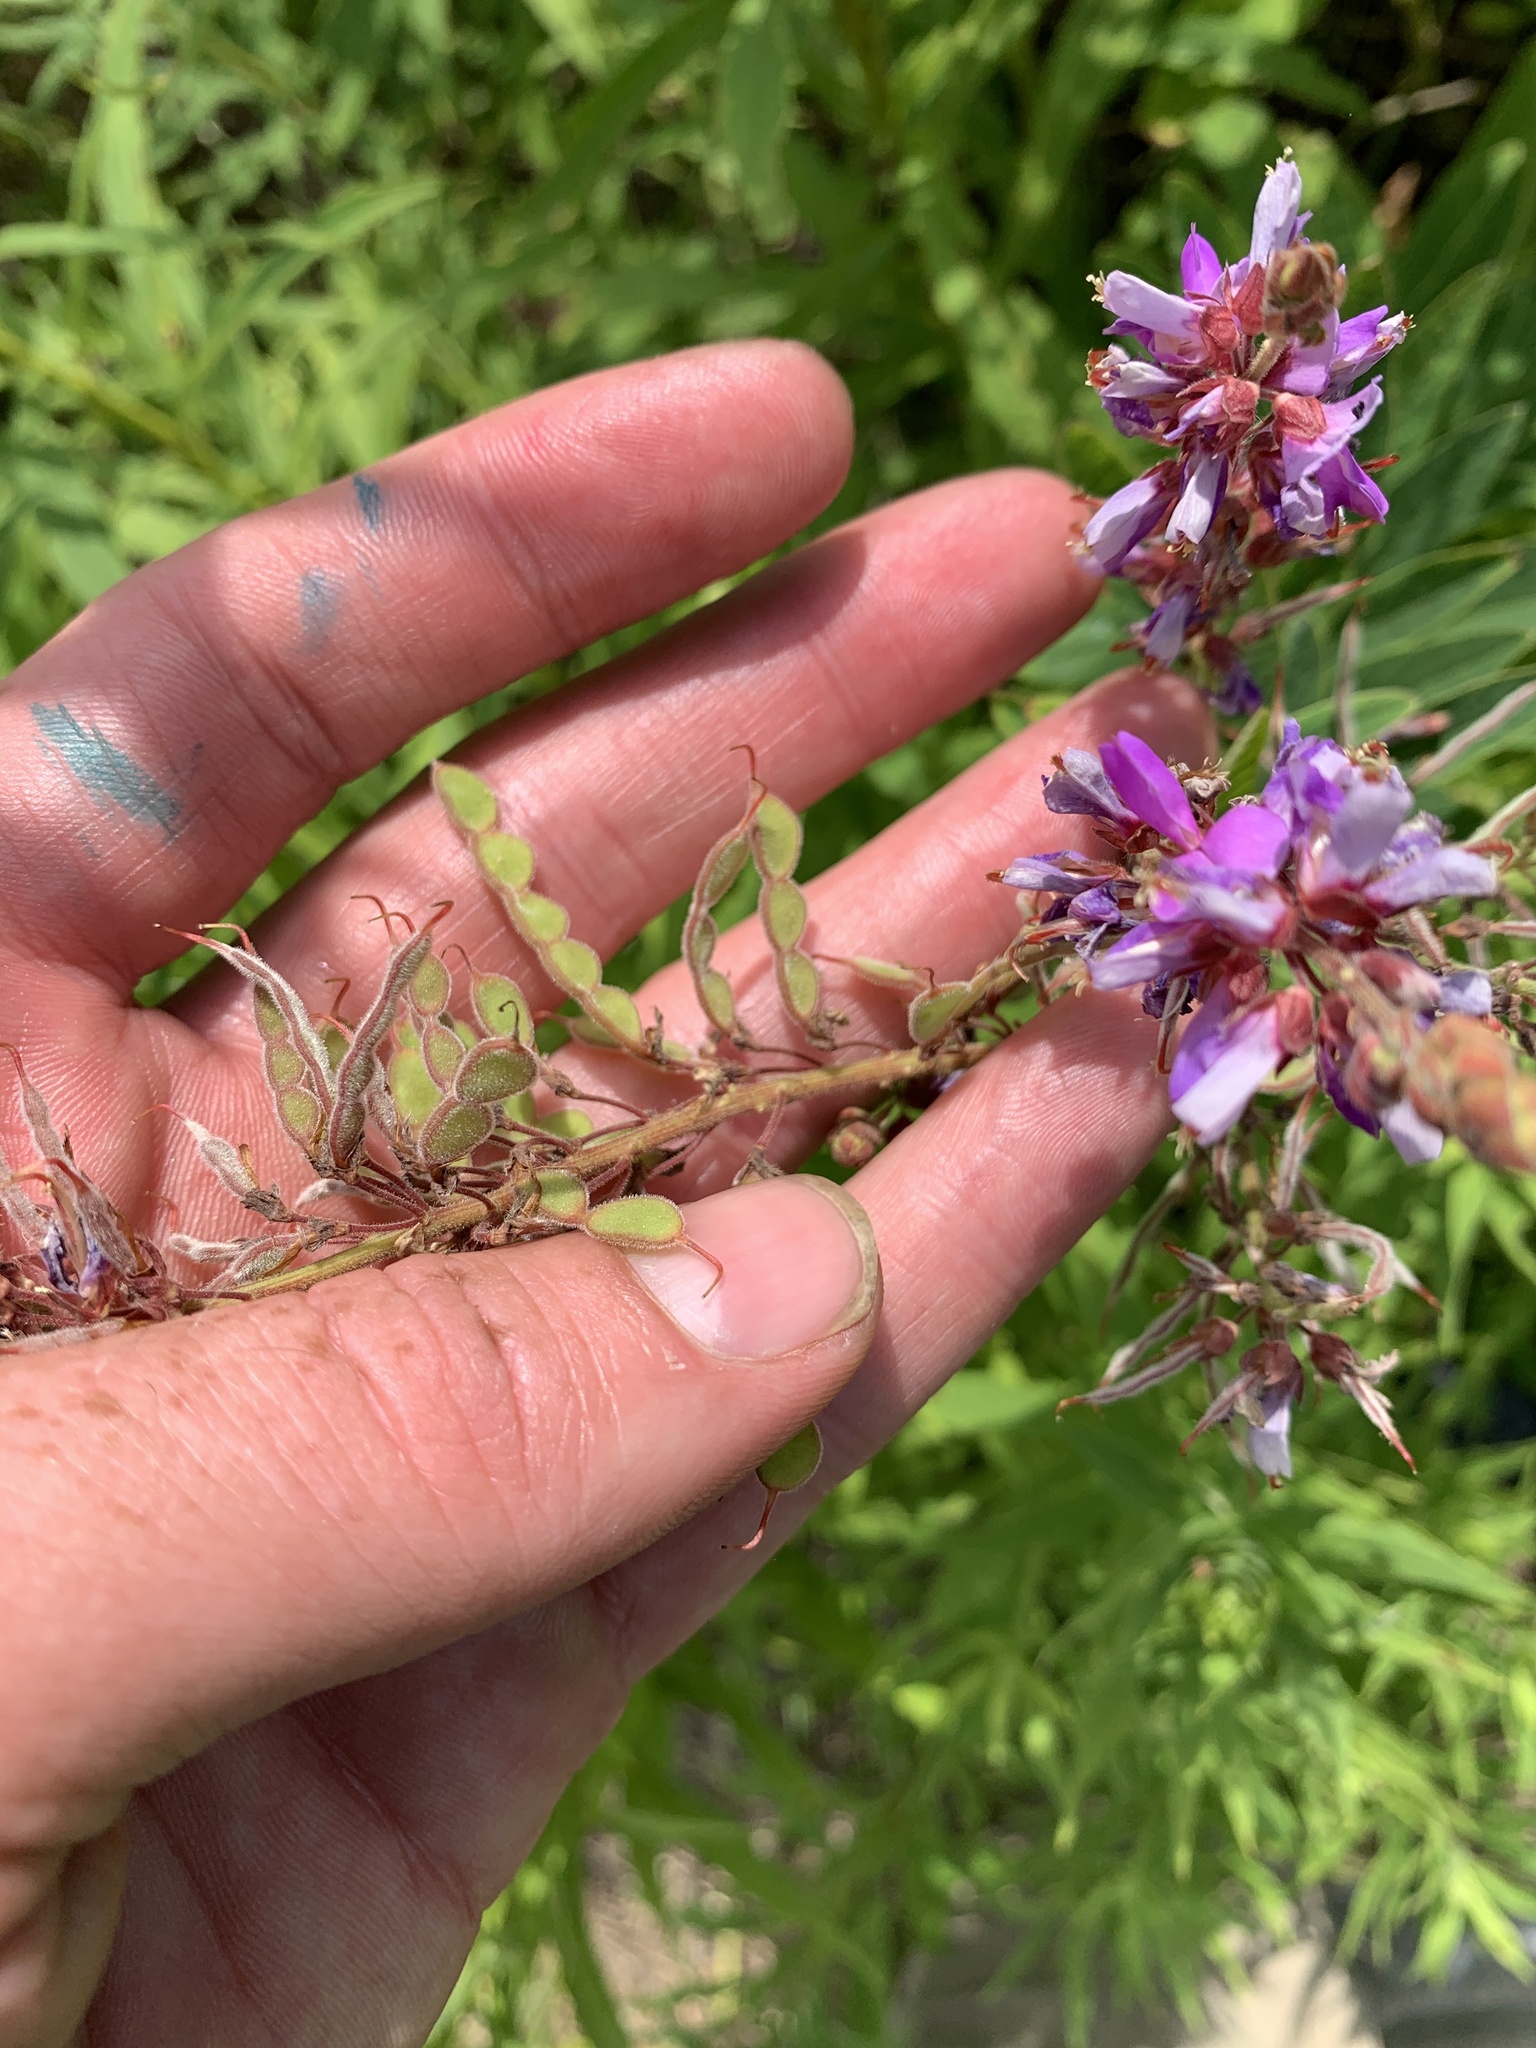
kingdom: Plantae
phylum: Tracheophyta
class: Magnoliopsida
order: Fabales
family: Fabaceae
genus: Desmodium
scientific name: Desmodium canadense
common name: Canada tick-trefoil
